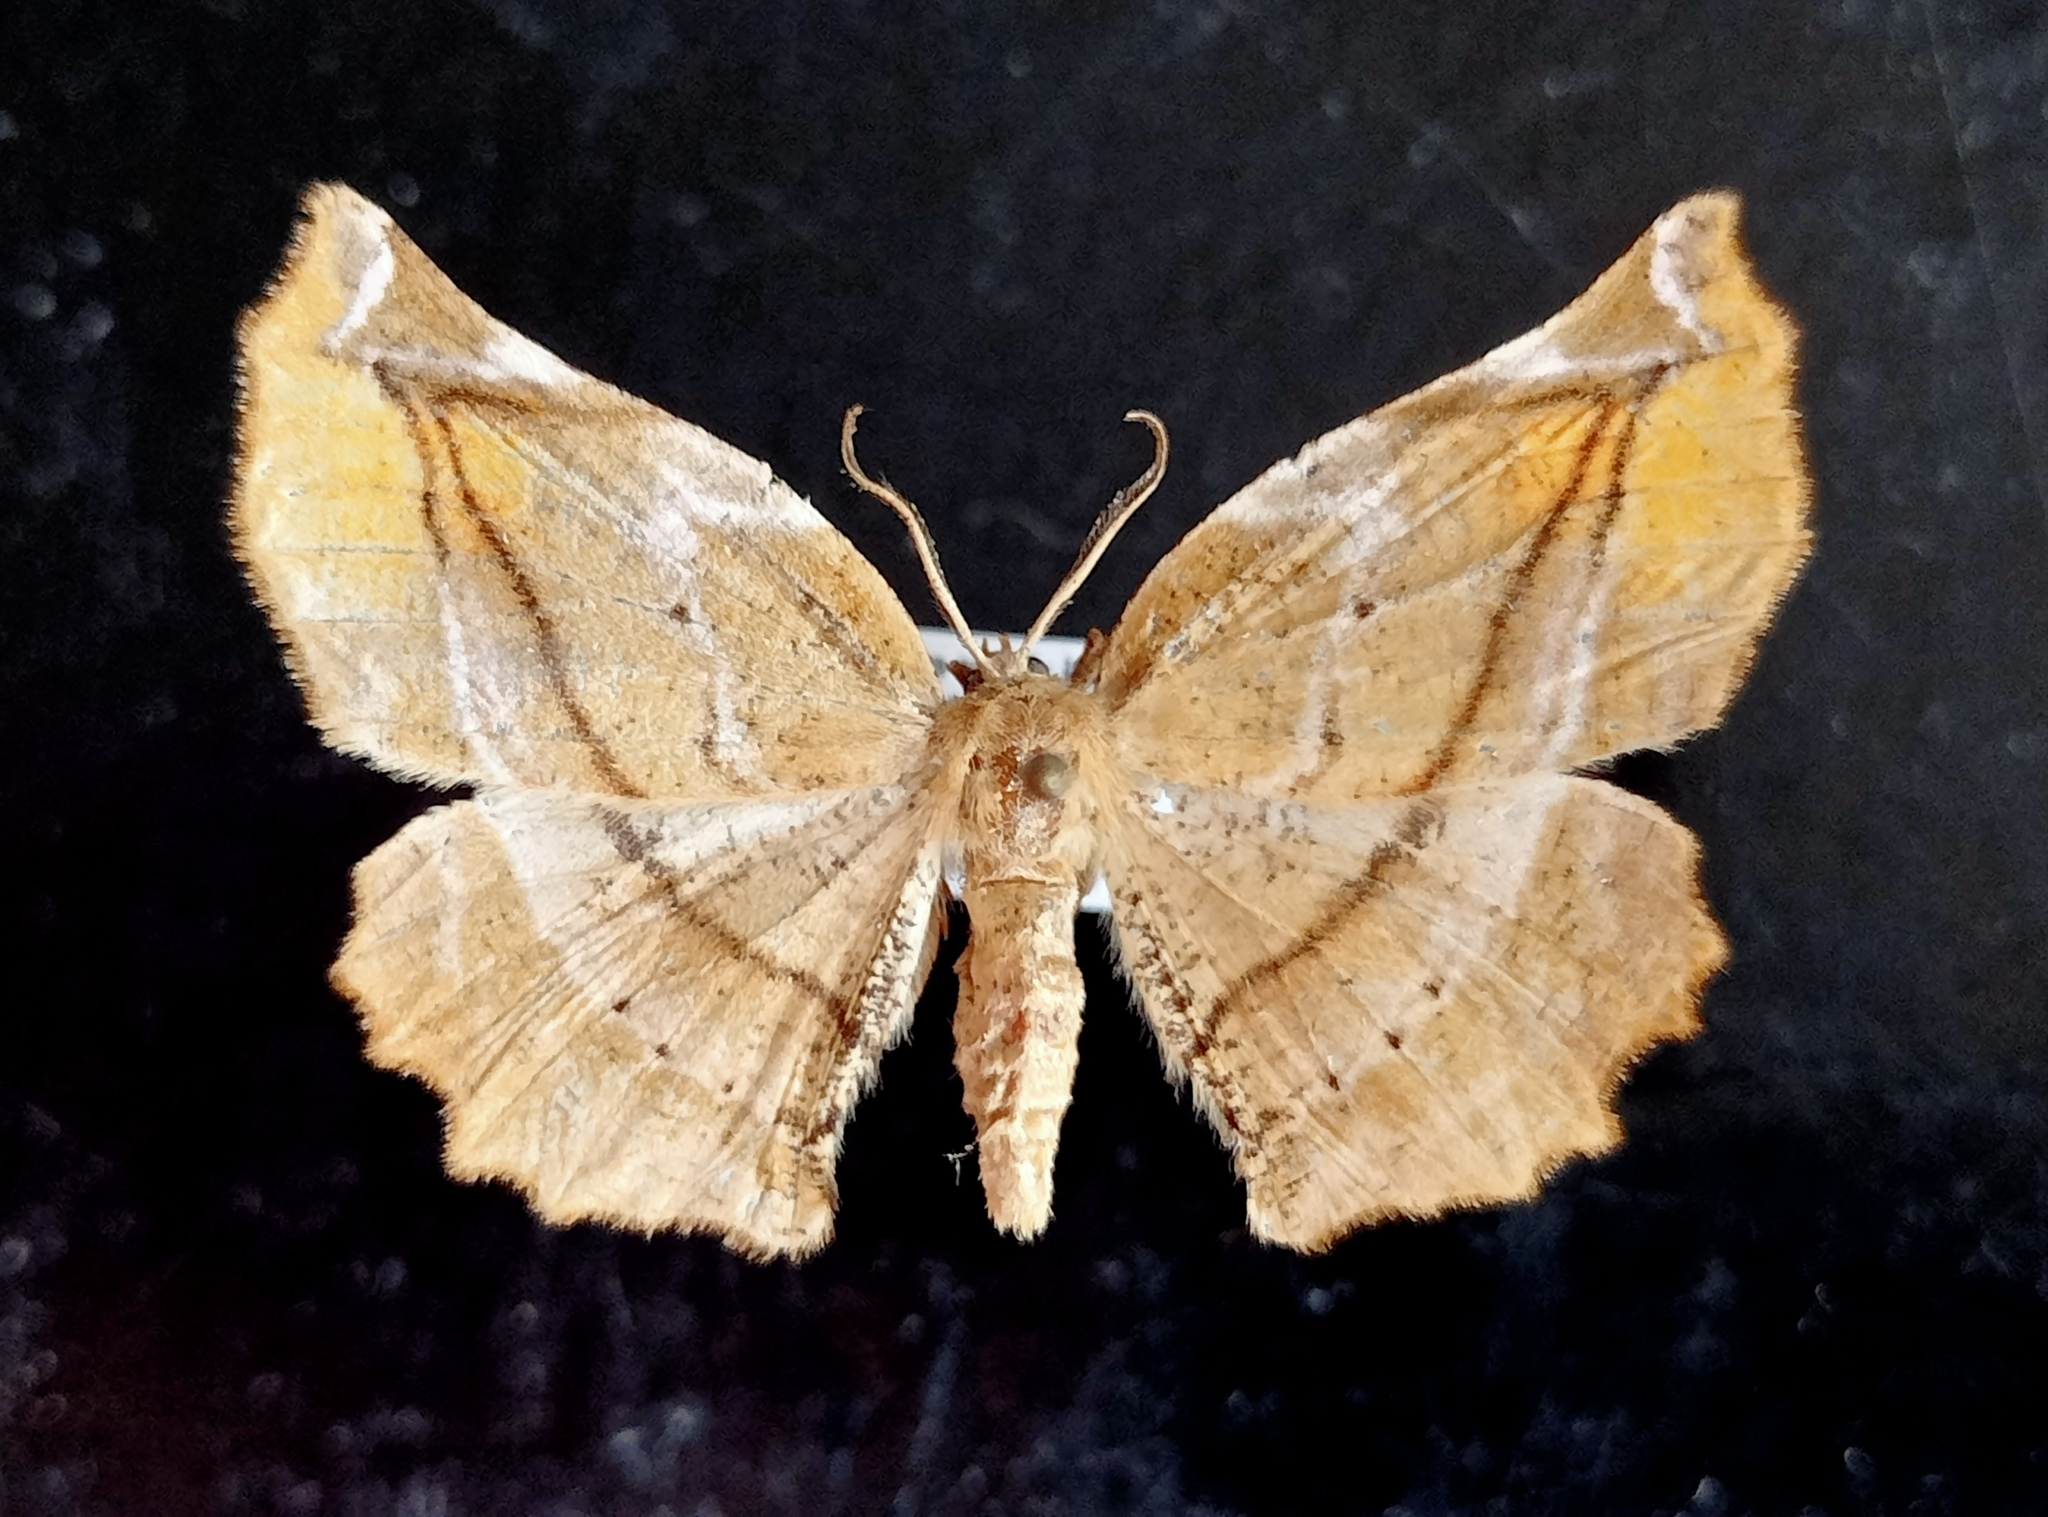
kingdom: Animalia
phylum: Arthropoda
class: Insecta
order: Lepidoptera
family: Geometridae
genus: Apeira
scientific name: Apeira syringaria
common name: Lilac beauty
